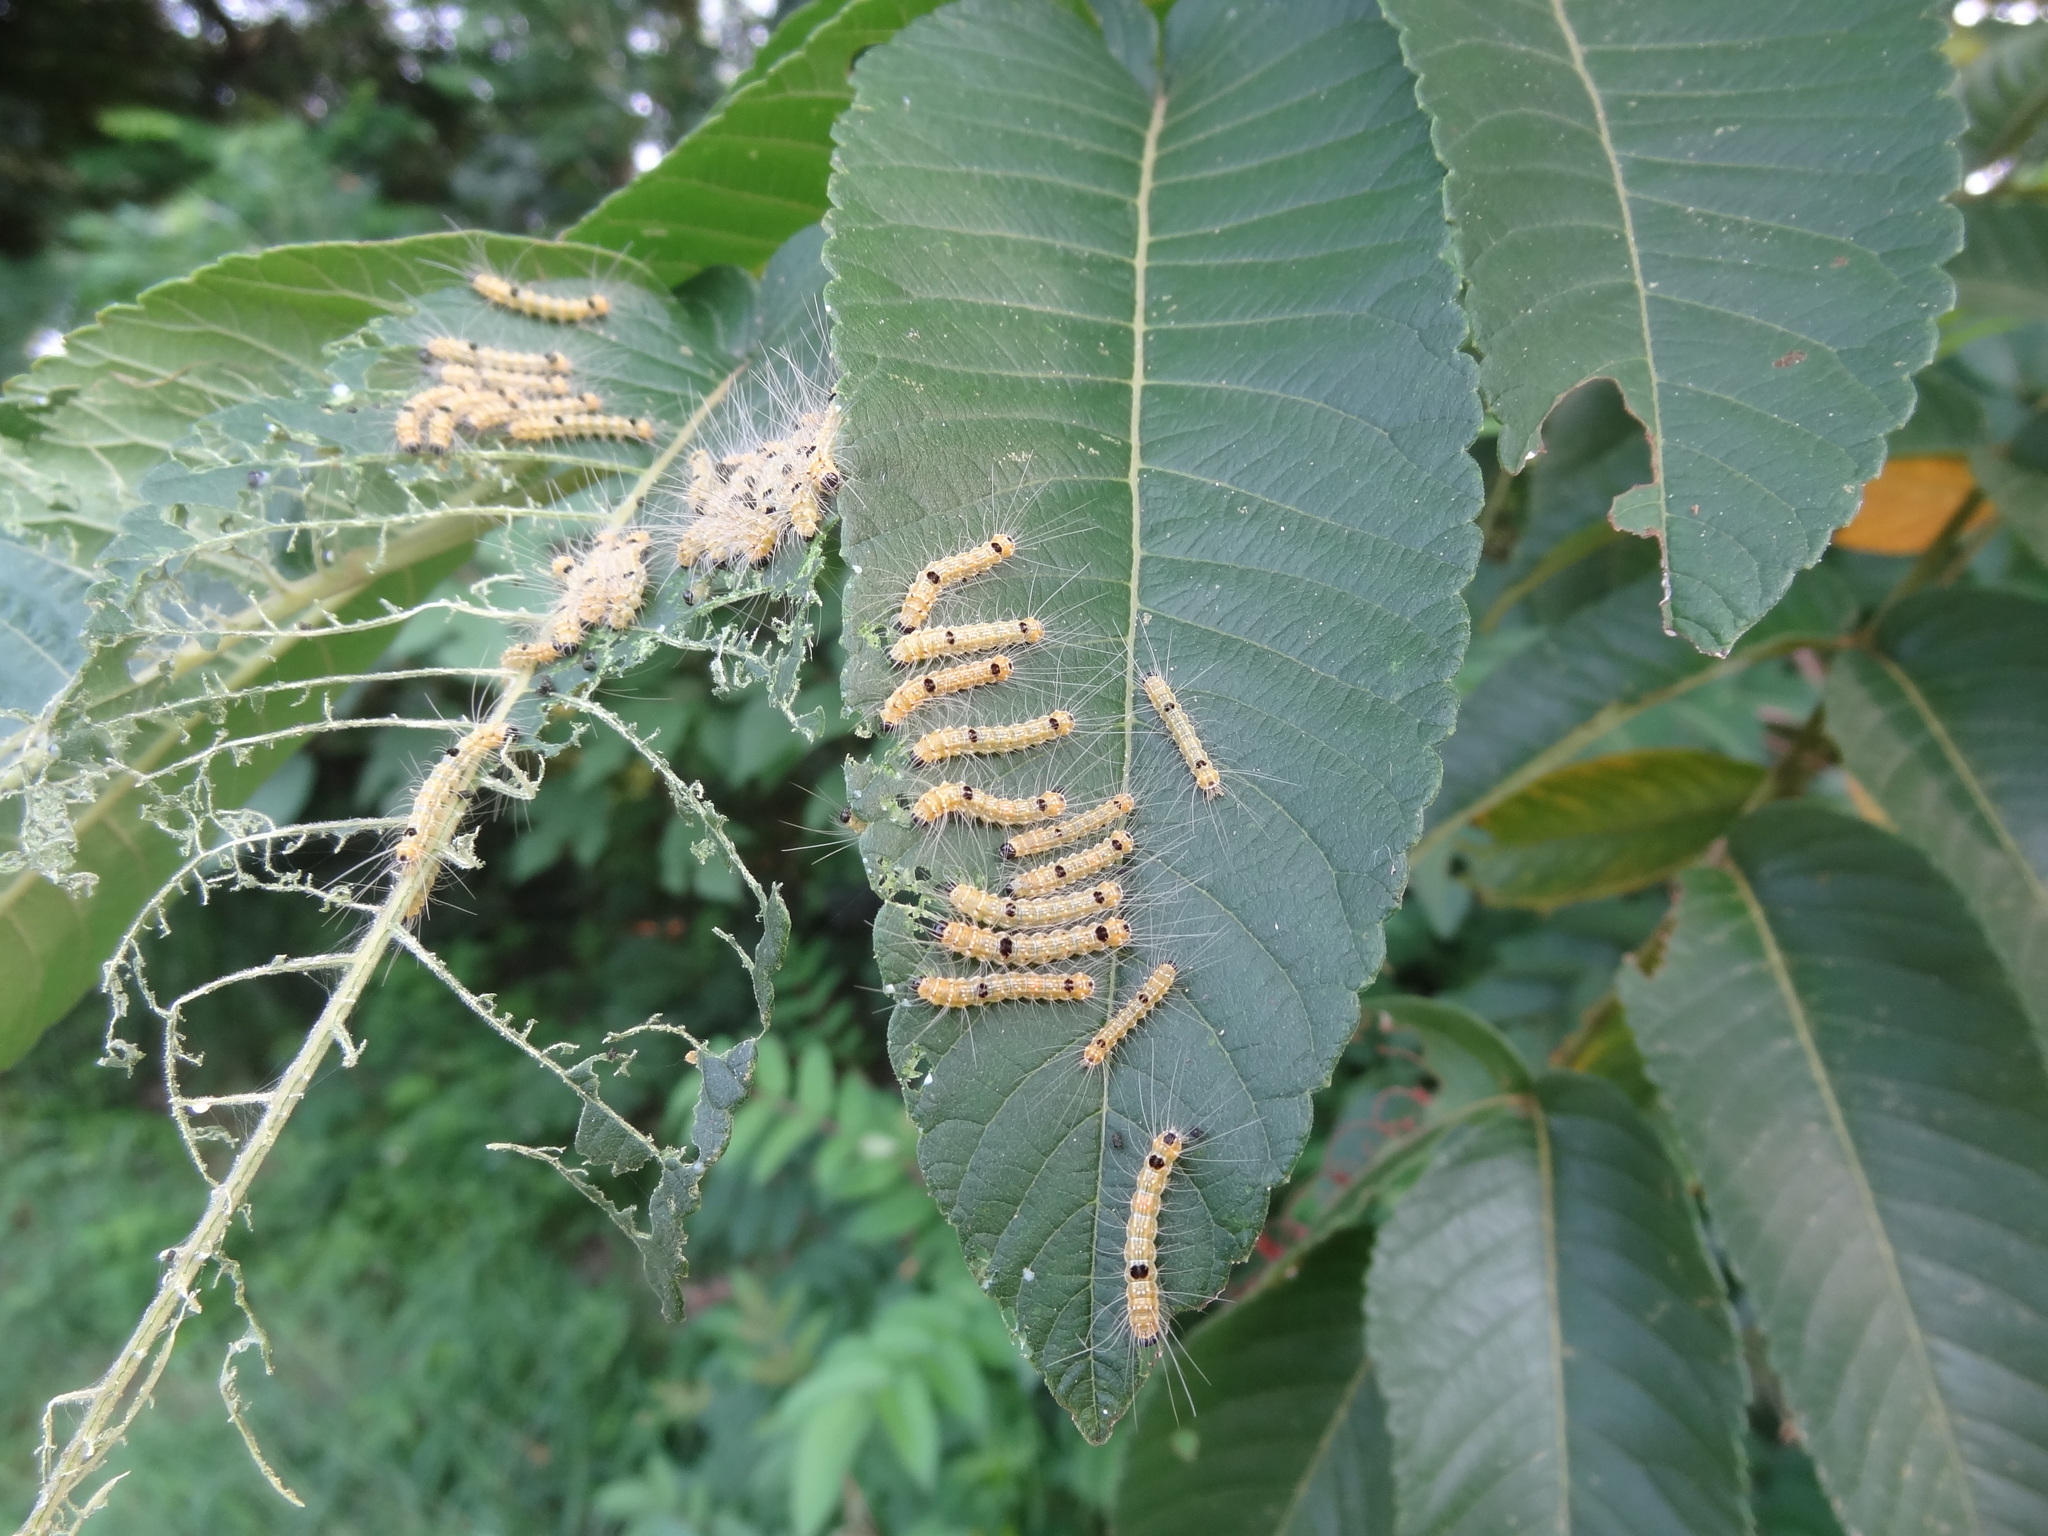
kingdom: Animalia
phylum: Arthropoda
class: Insecta
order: Lepidoptera
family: Erebidae
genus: Arna
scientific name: Arna bipunctapex
